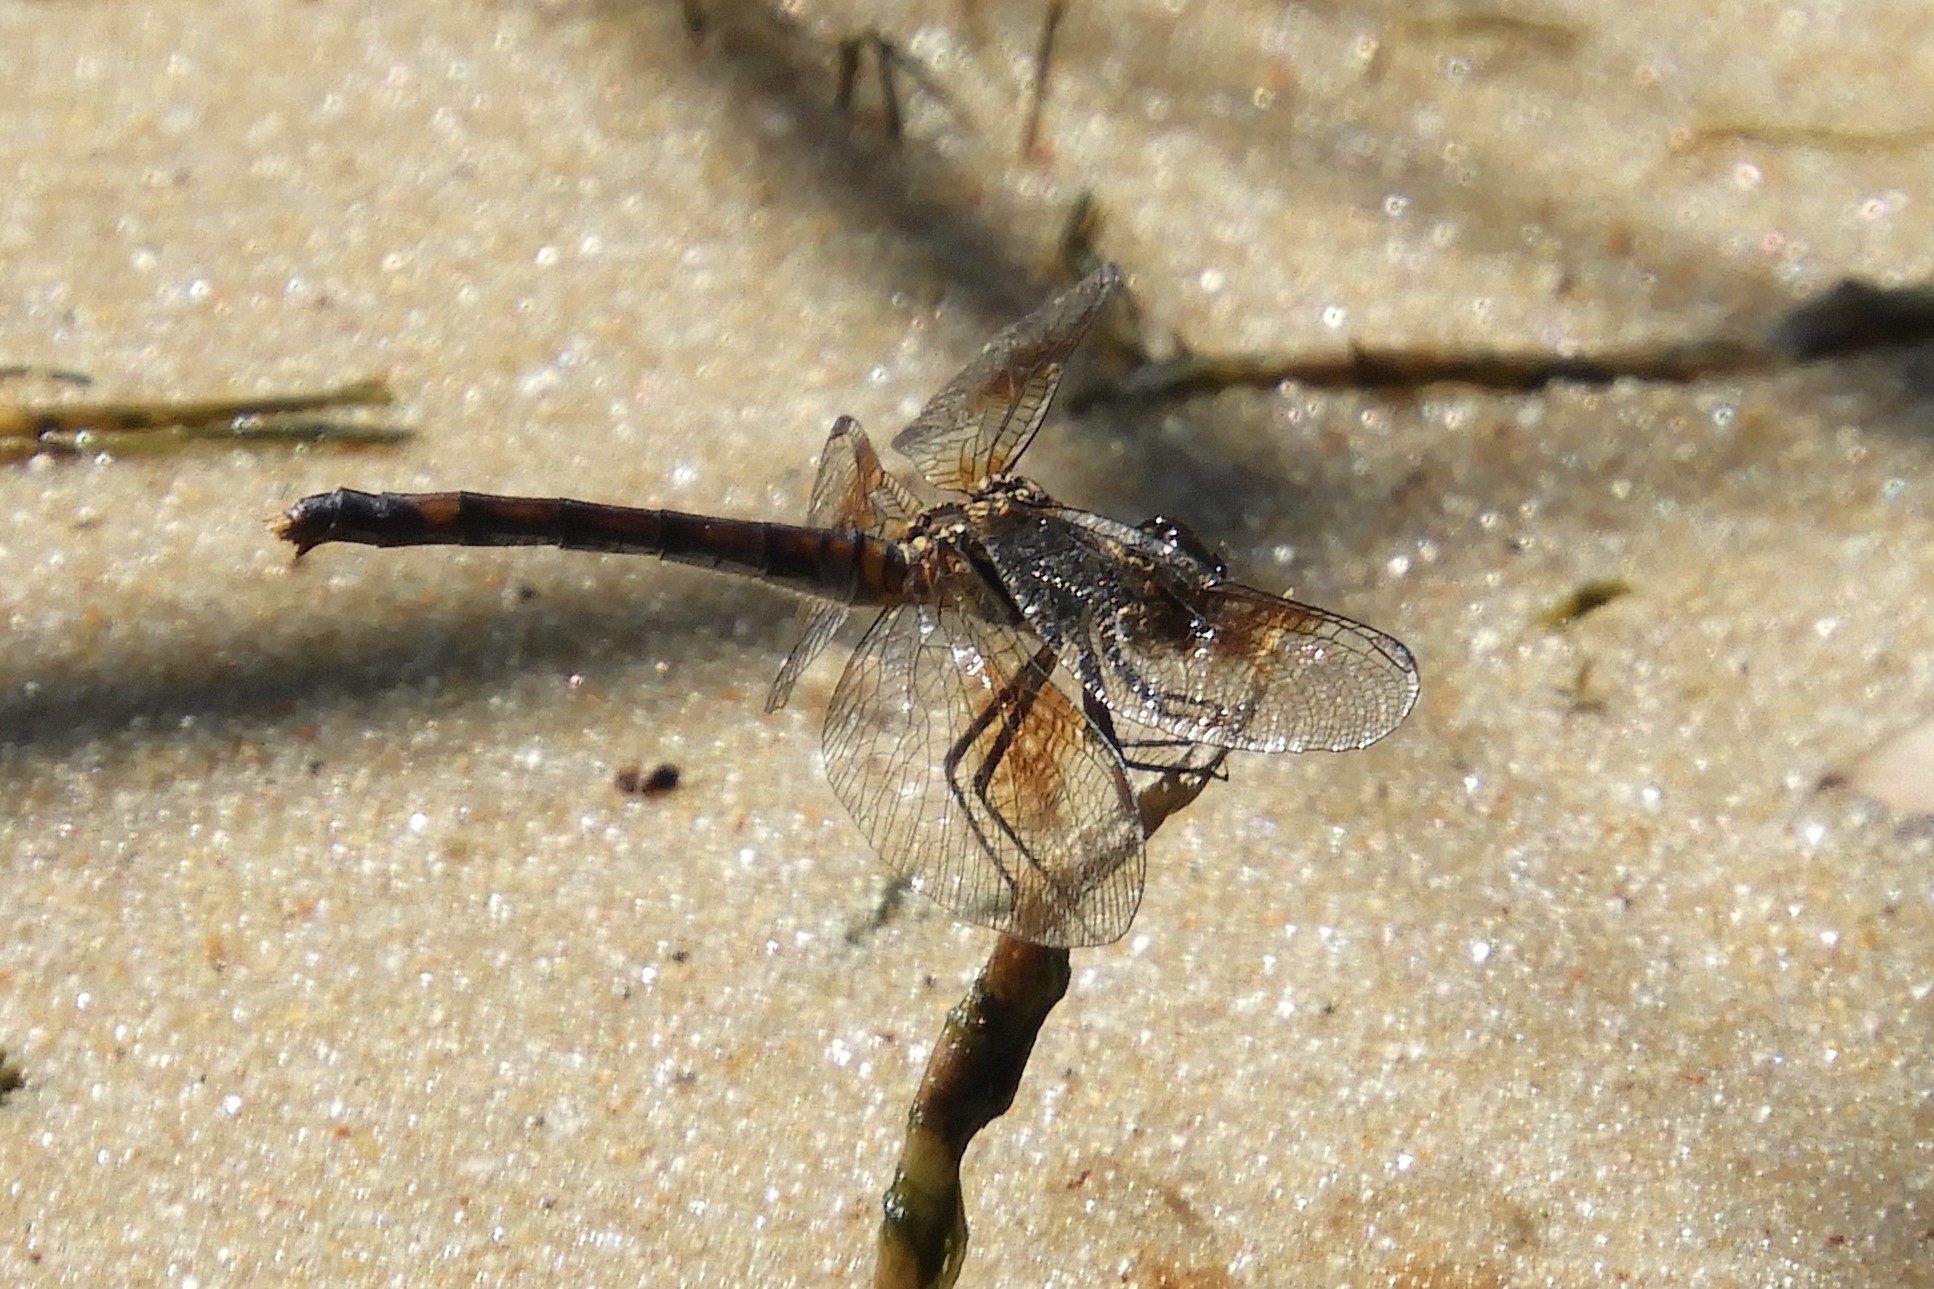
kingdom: Animalia
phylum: Arthropoda
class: Insecta
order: Odonata
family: Libellulidae
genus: Erythrodiplax
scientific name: Erythrodiplax berenice
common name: Seaside dragonlet
